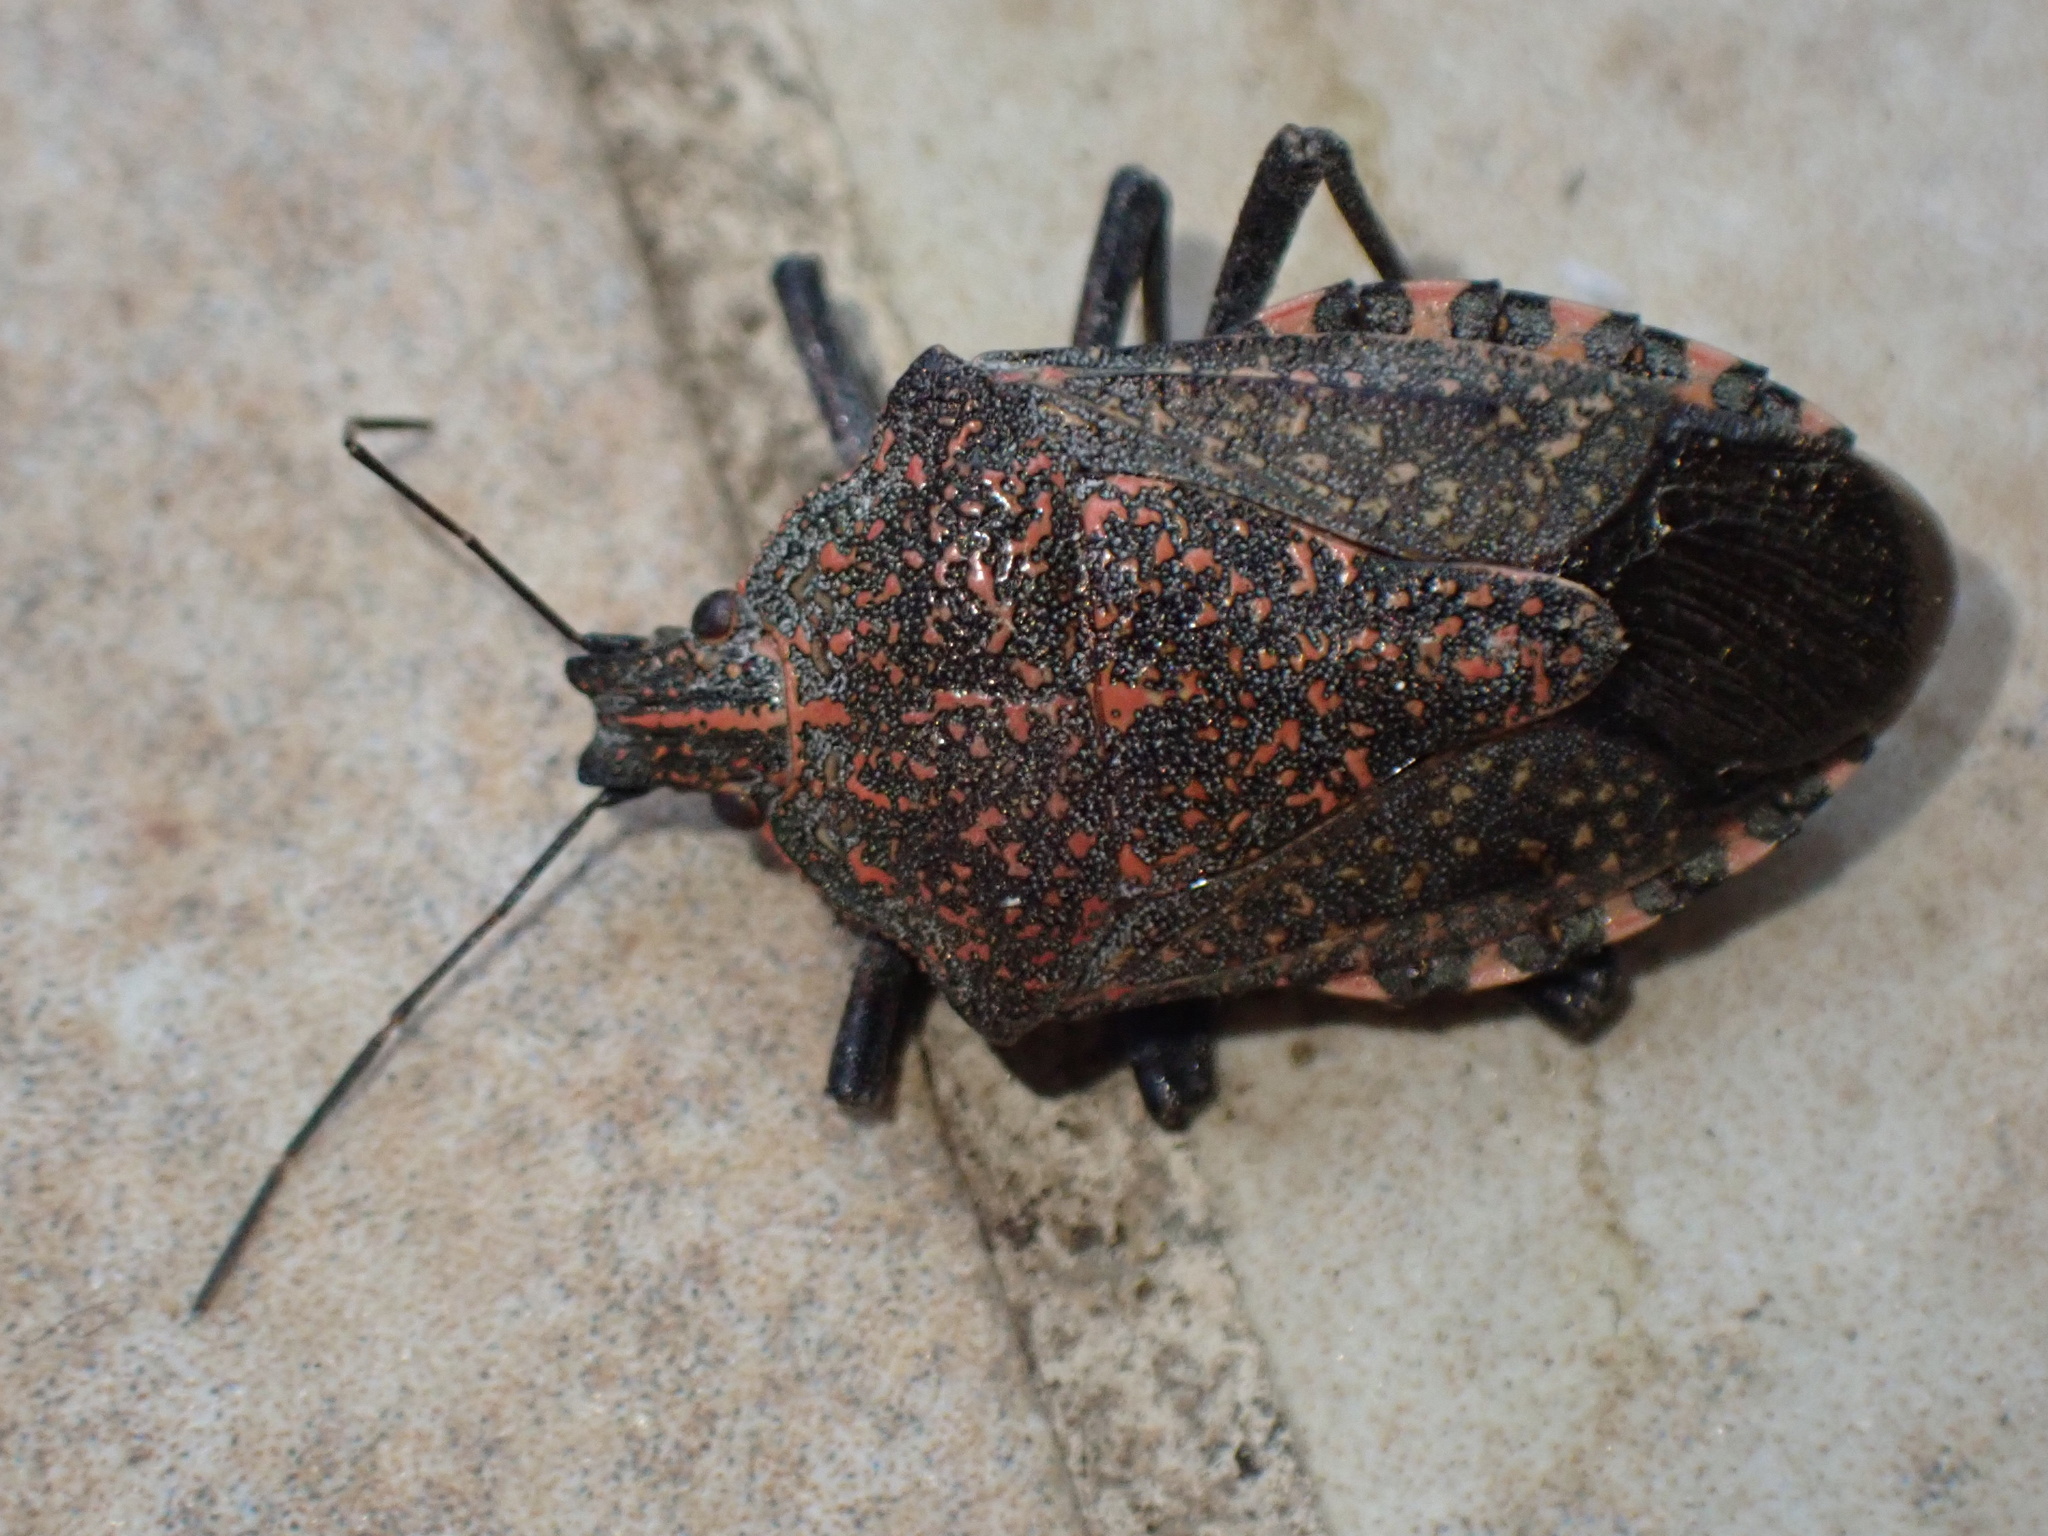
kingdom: Animalia
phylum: Arthropoda
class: Insecta
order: Hemiptera
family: Pentatomidae
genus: Apodiphus
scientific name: Apodiphus amygdali
